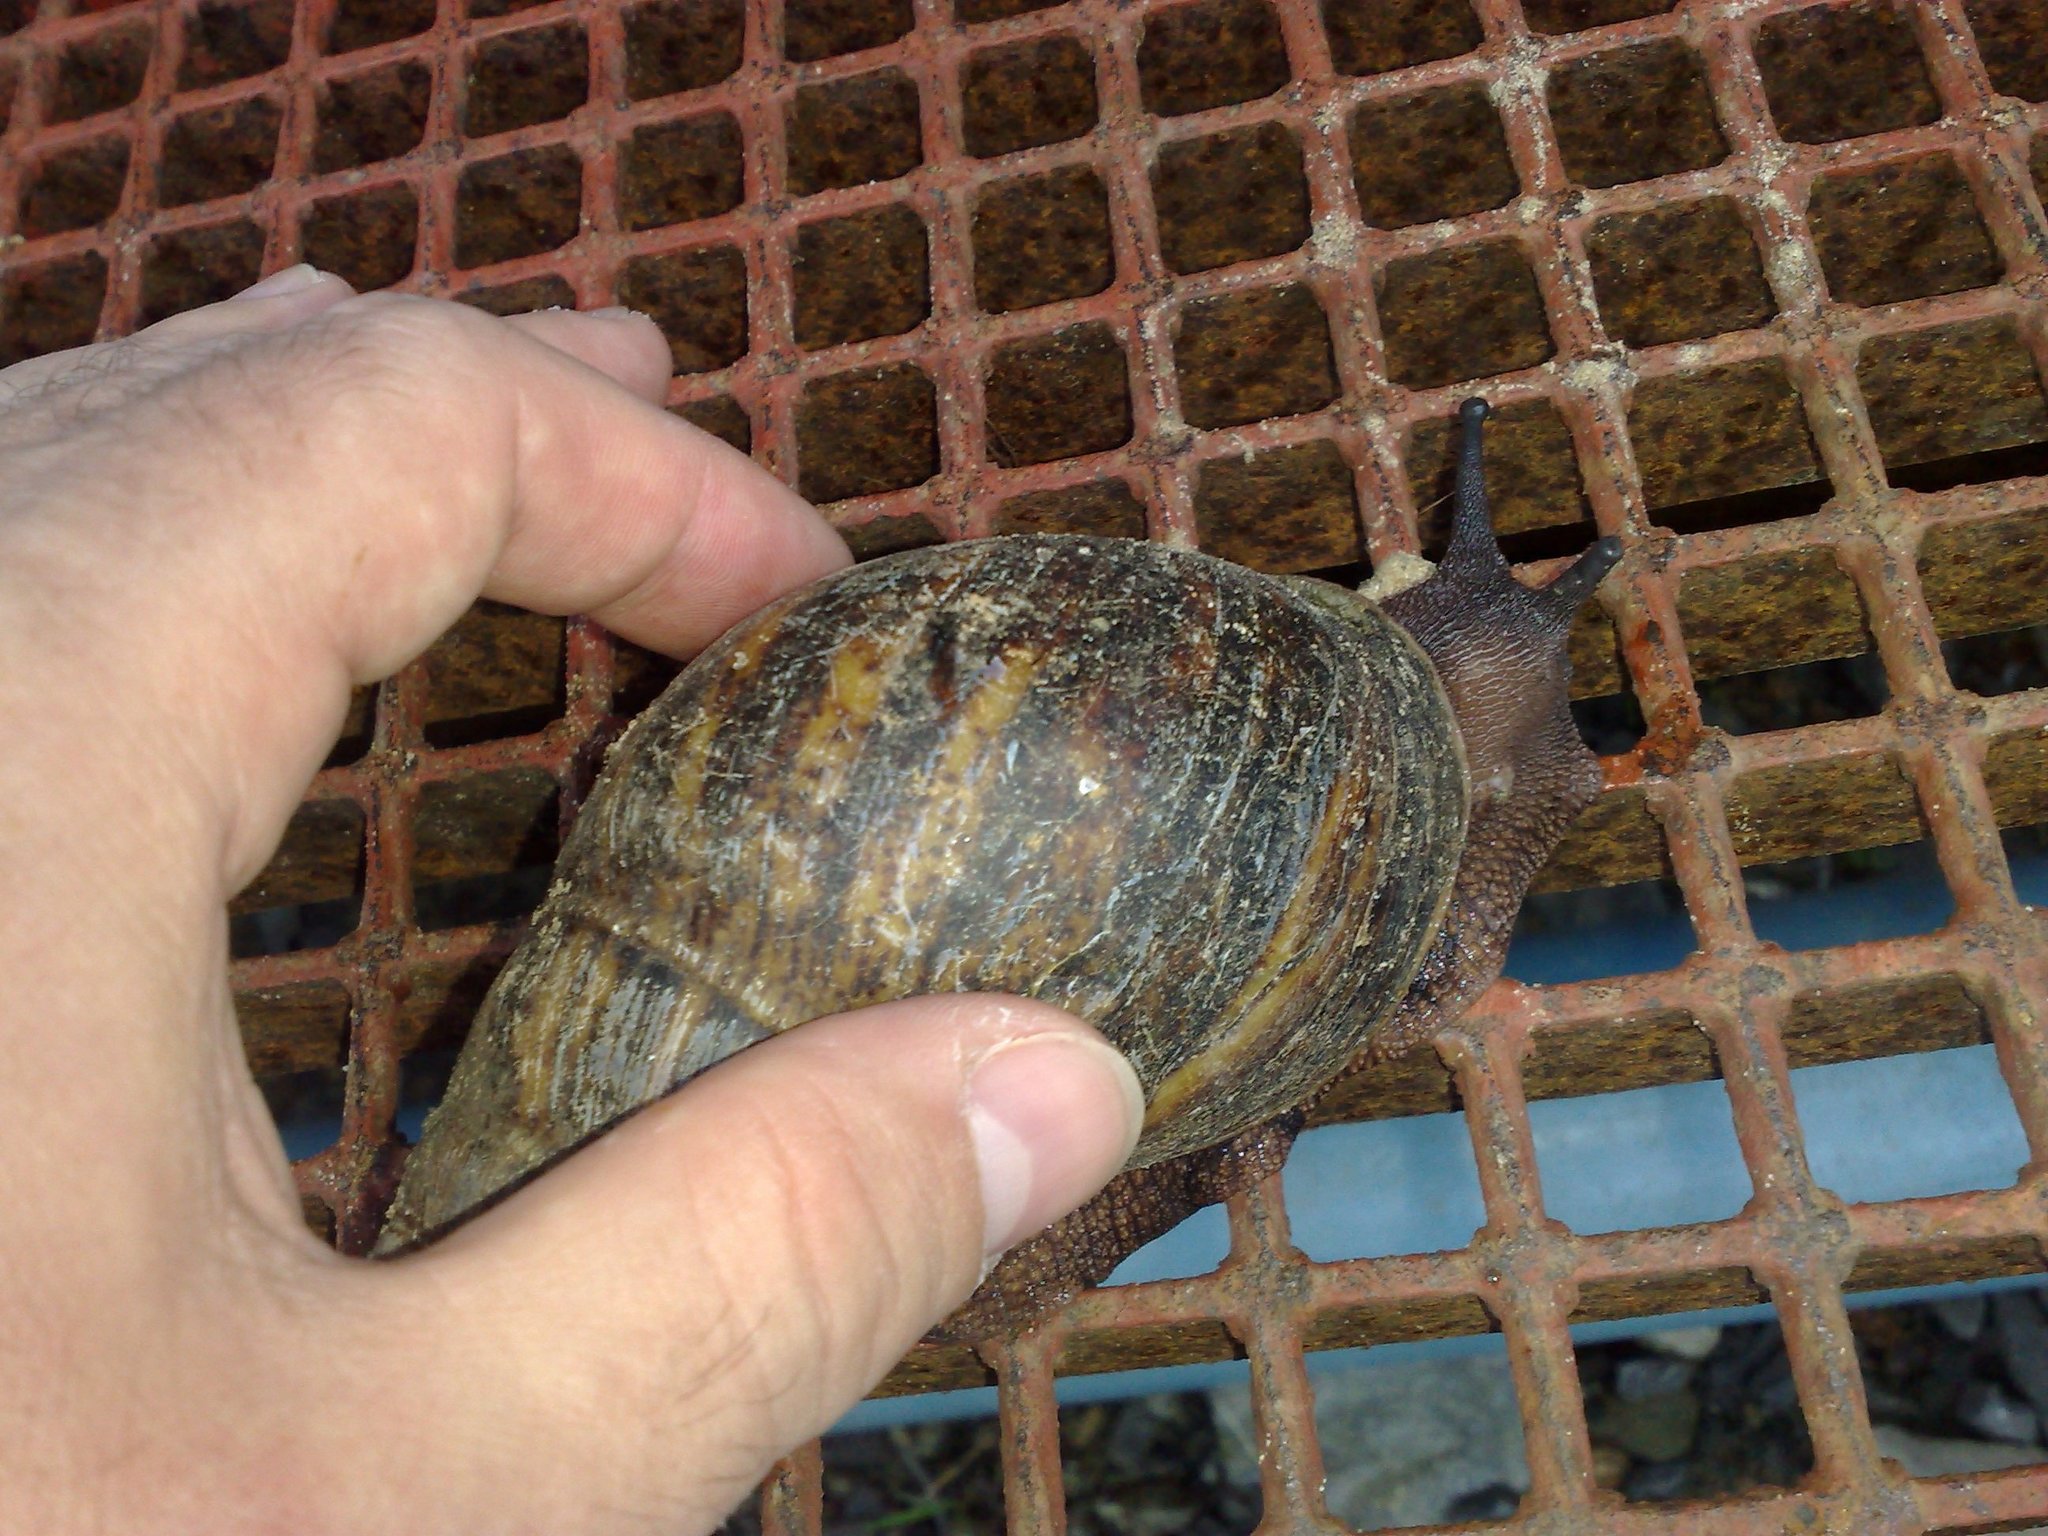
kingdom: Animalia
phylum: Mollusca
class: Gastropoda
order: Stylommatophora
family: Achatinidae
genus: Archachatina
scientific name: Archachatina marginata
